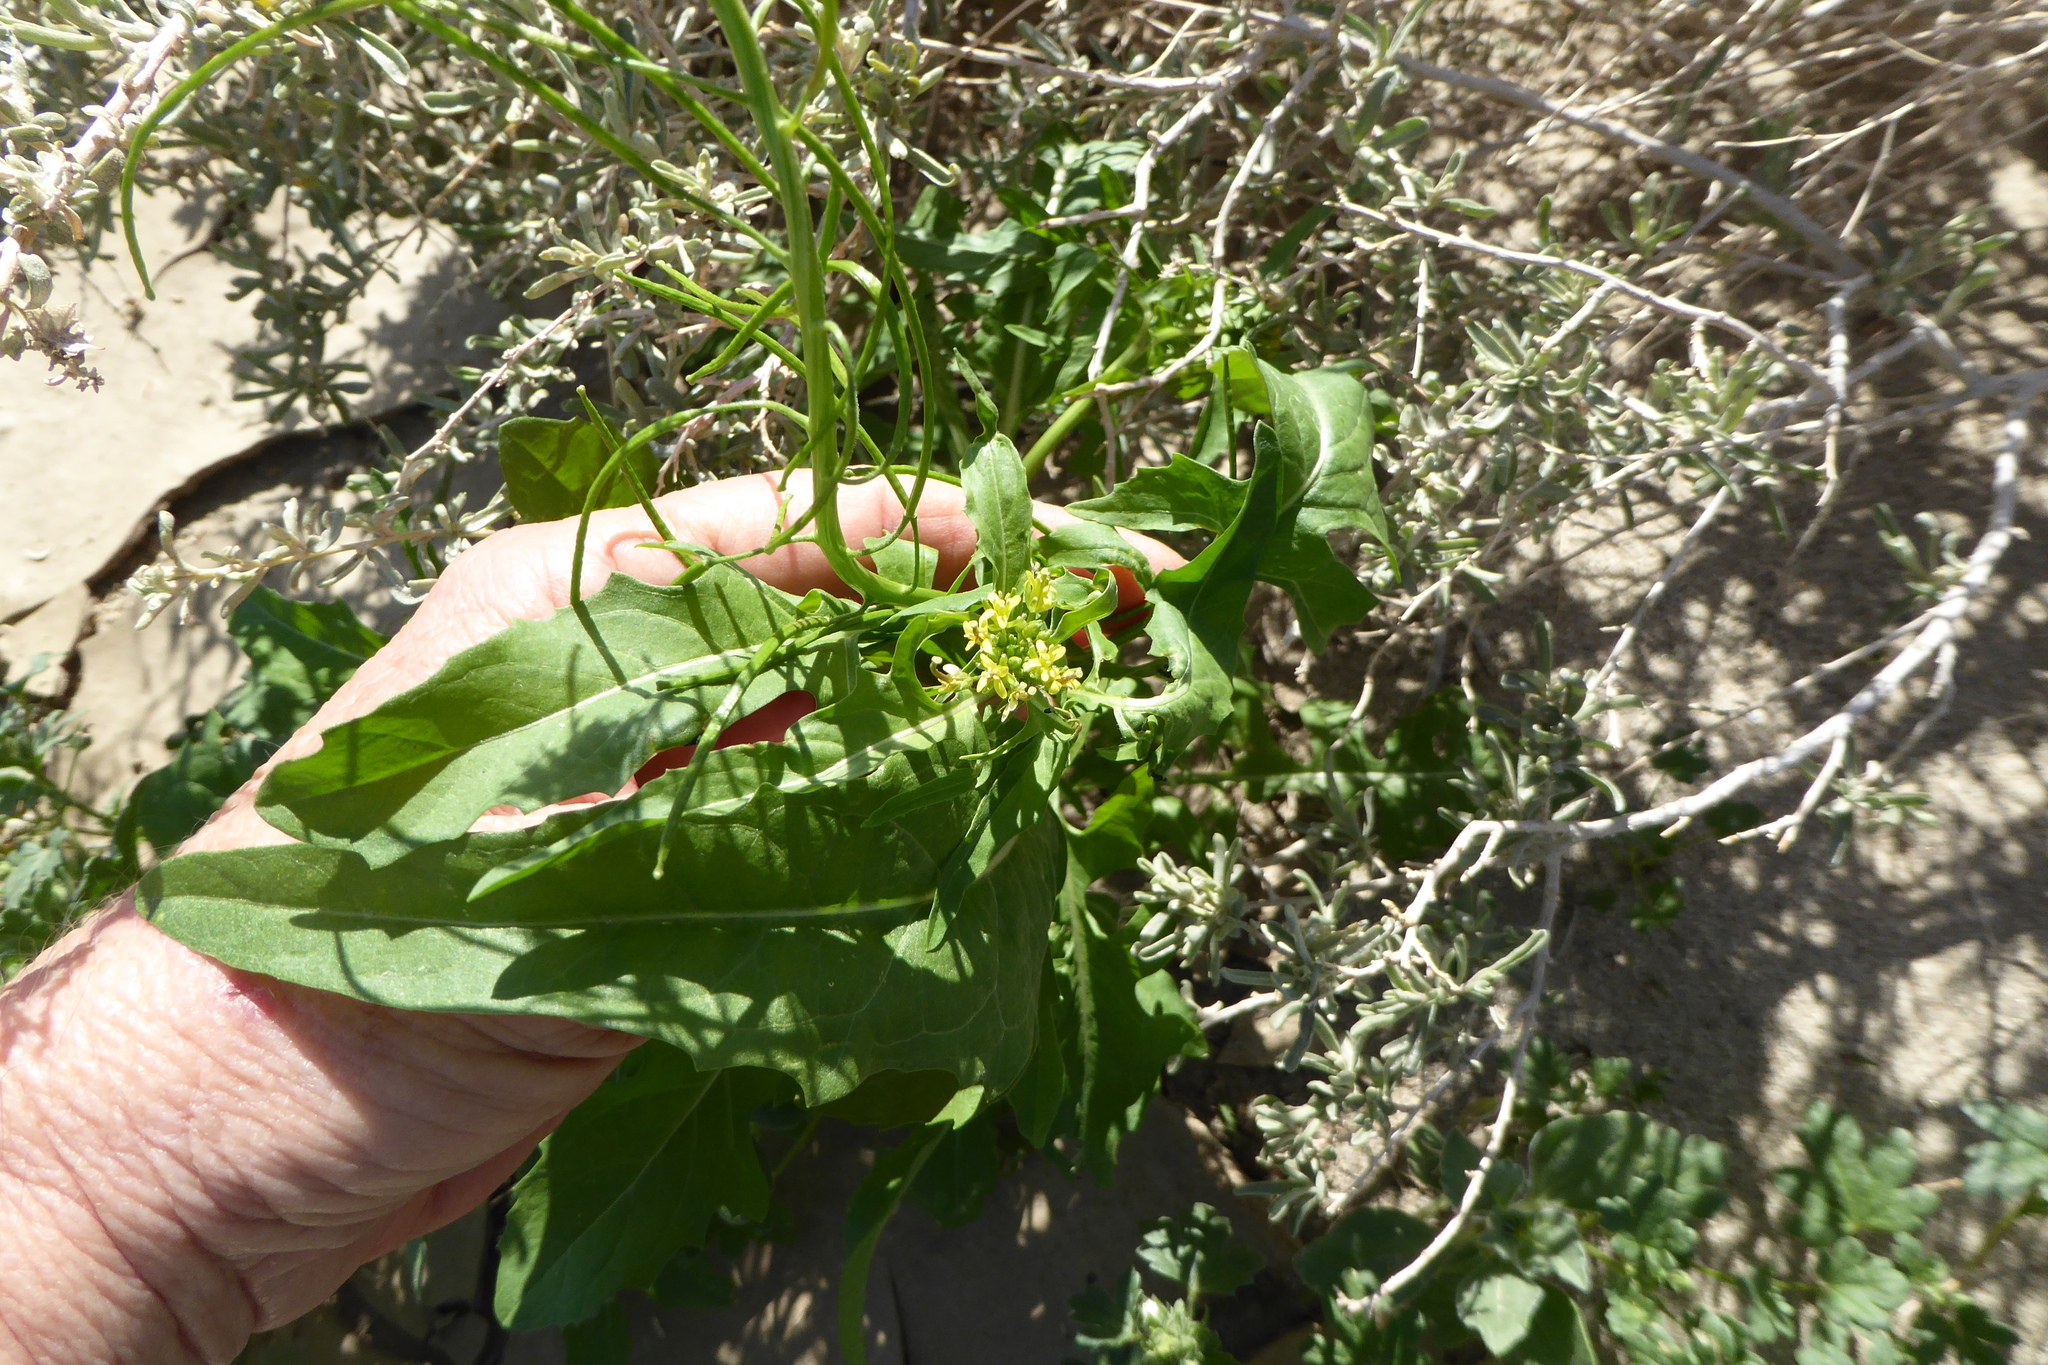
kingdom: Plantae
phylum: Tracheophyta
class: Magnoliopsida
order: Brassicales
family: Brassicaceae
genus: Sisymbrium
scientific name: Sisymbrium irio
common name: London rocket
